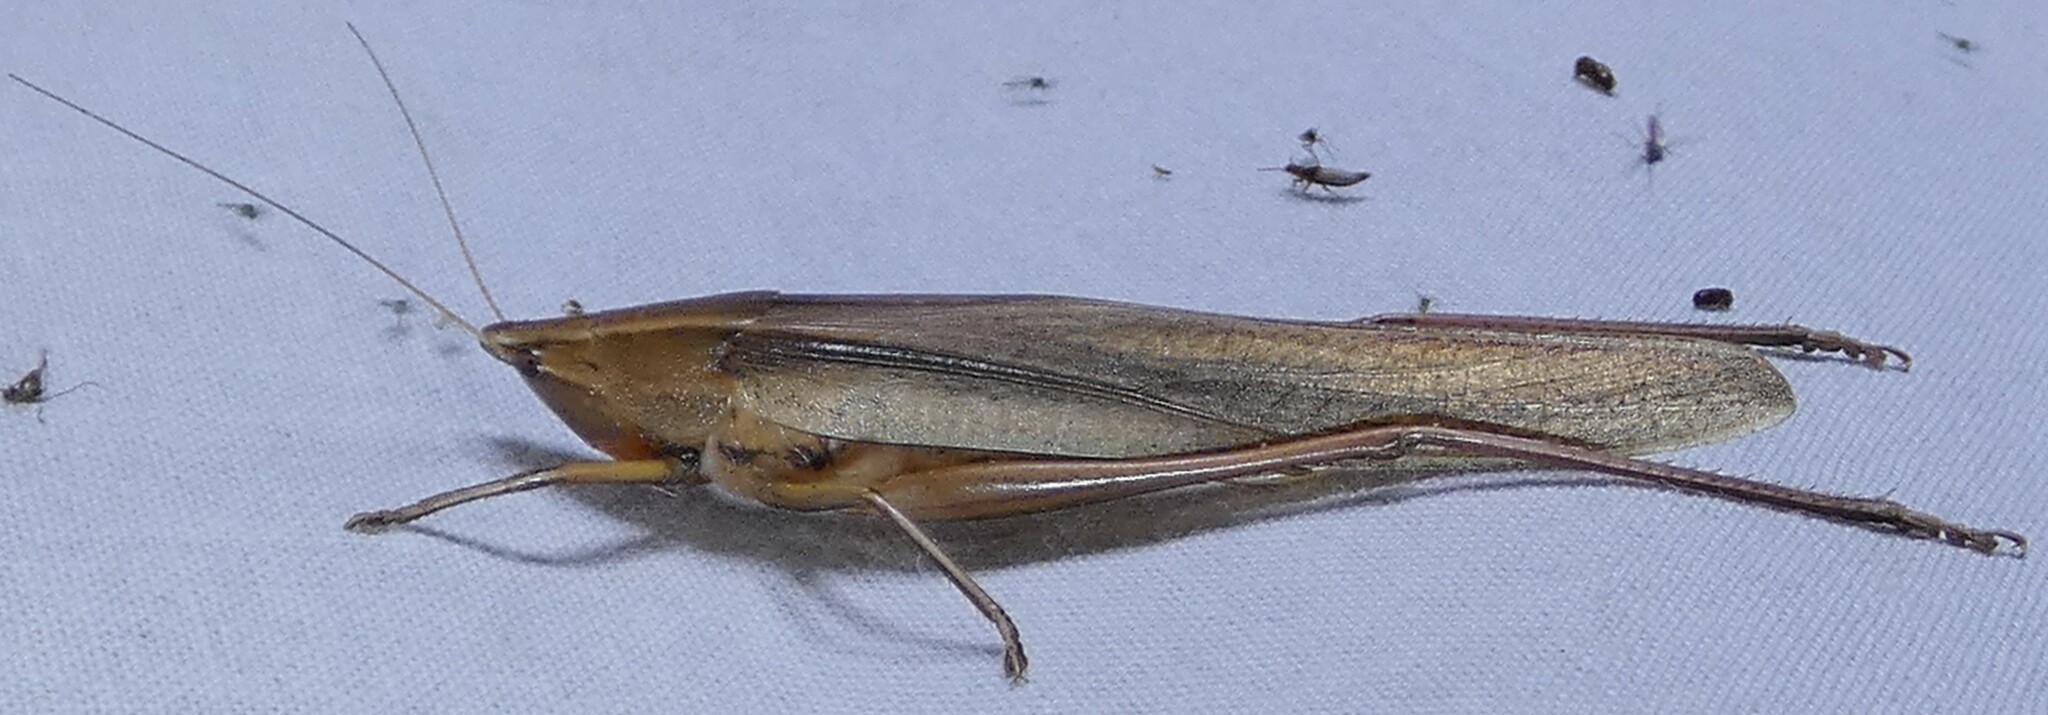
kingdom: Animalia
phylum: Arthropoda
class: Insecta
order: Orthoptera
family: Tettigoniidae
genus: Neoconocephalus
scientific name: Neoconocephalus triops
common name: Broad-tipped conehead
